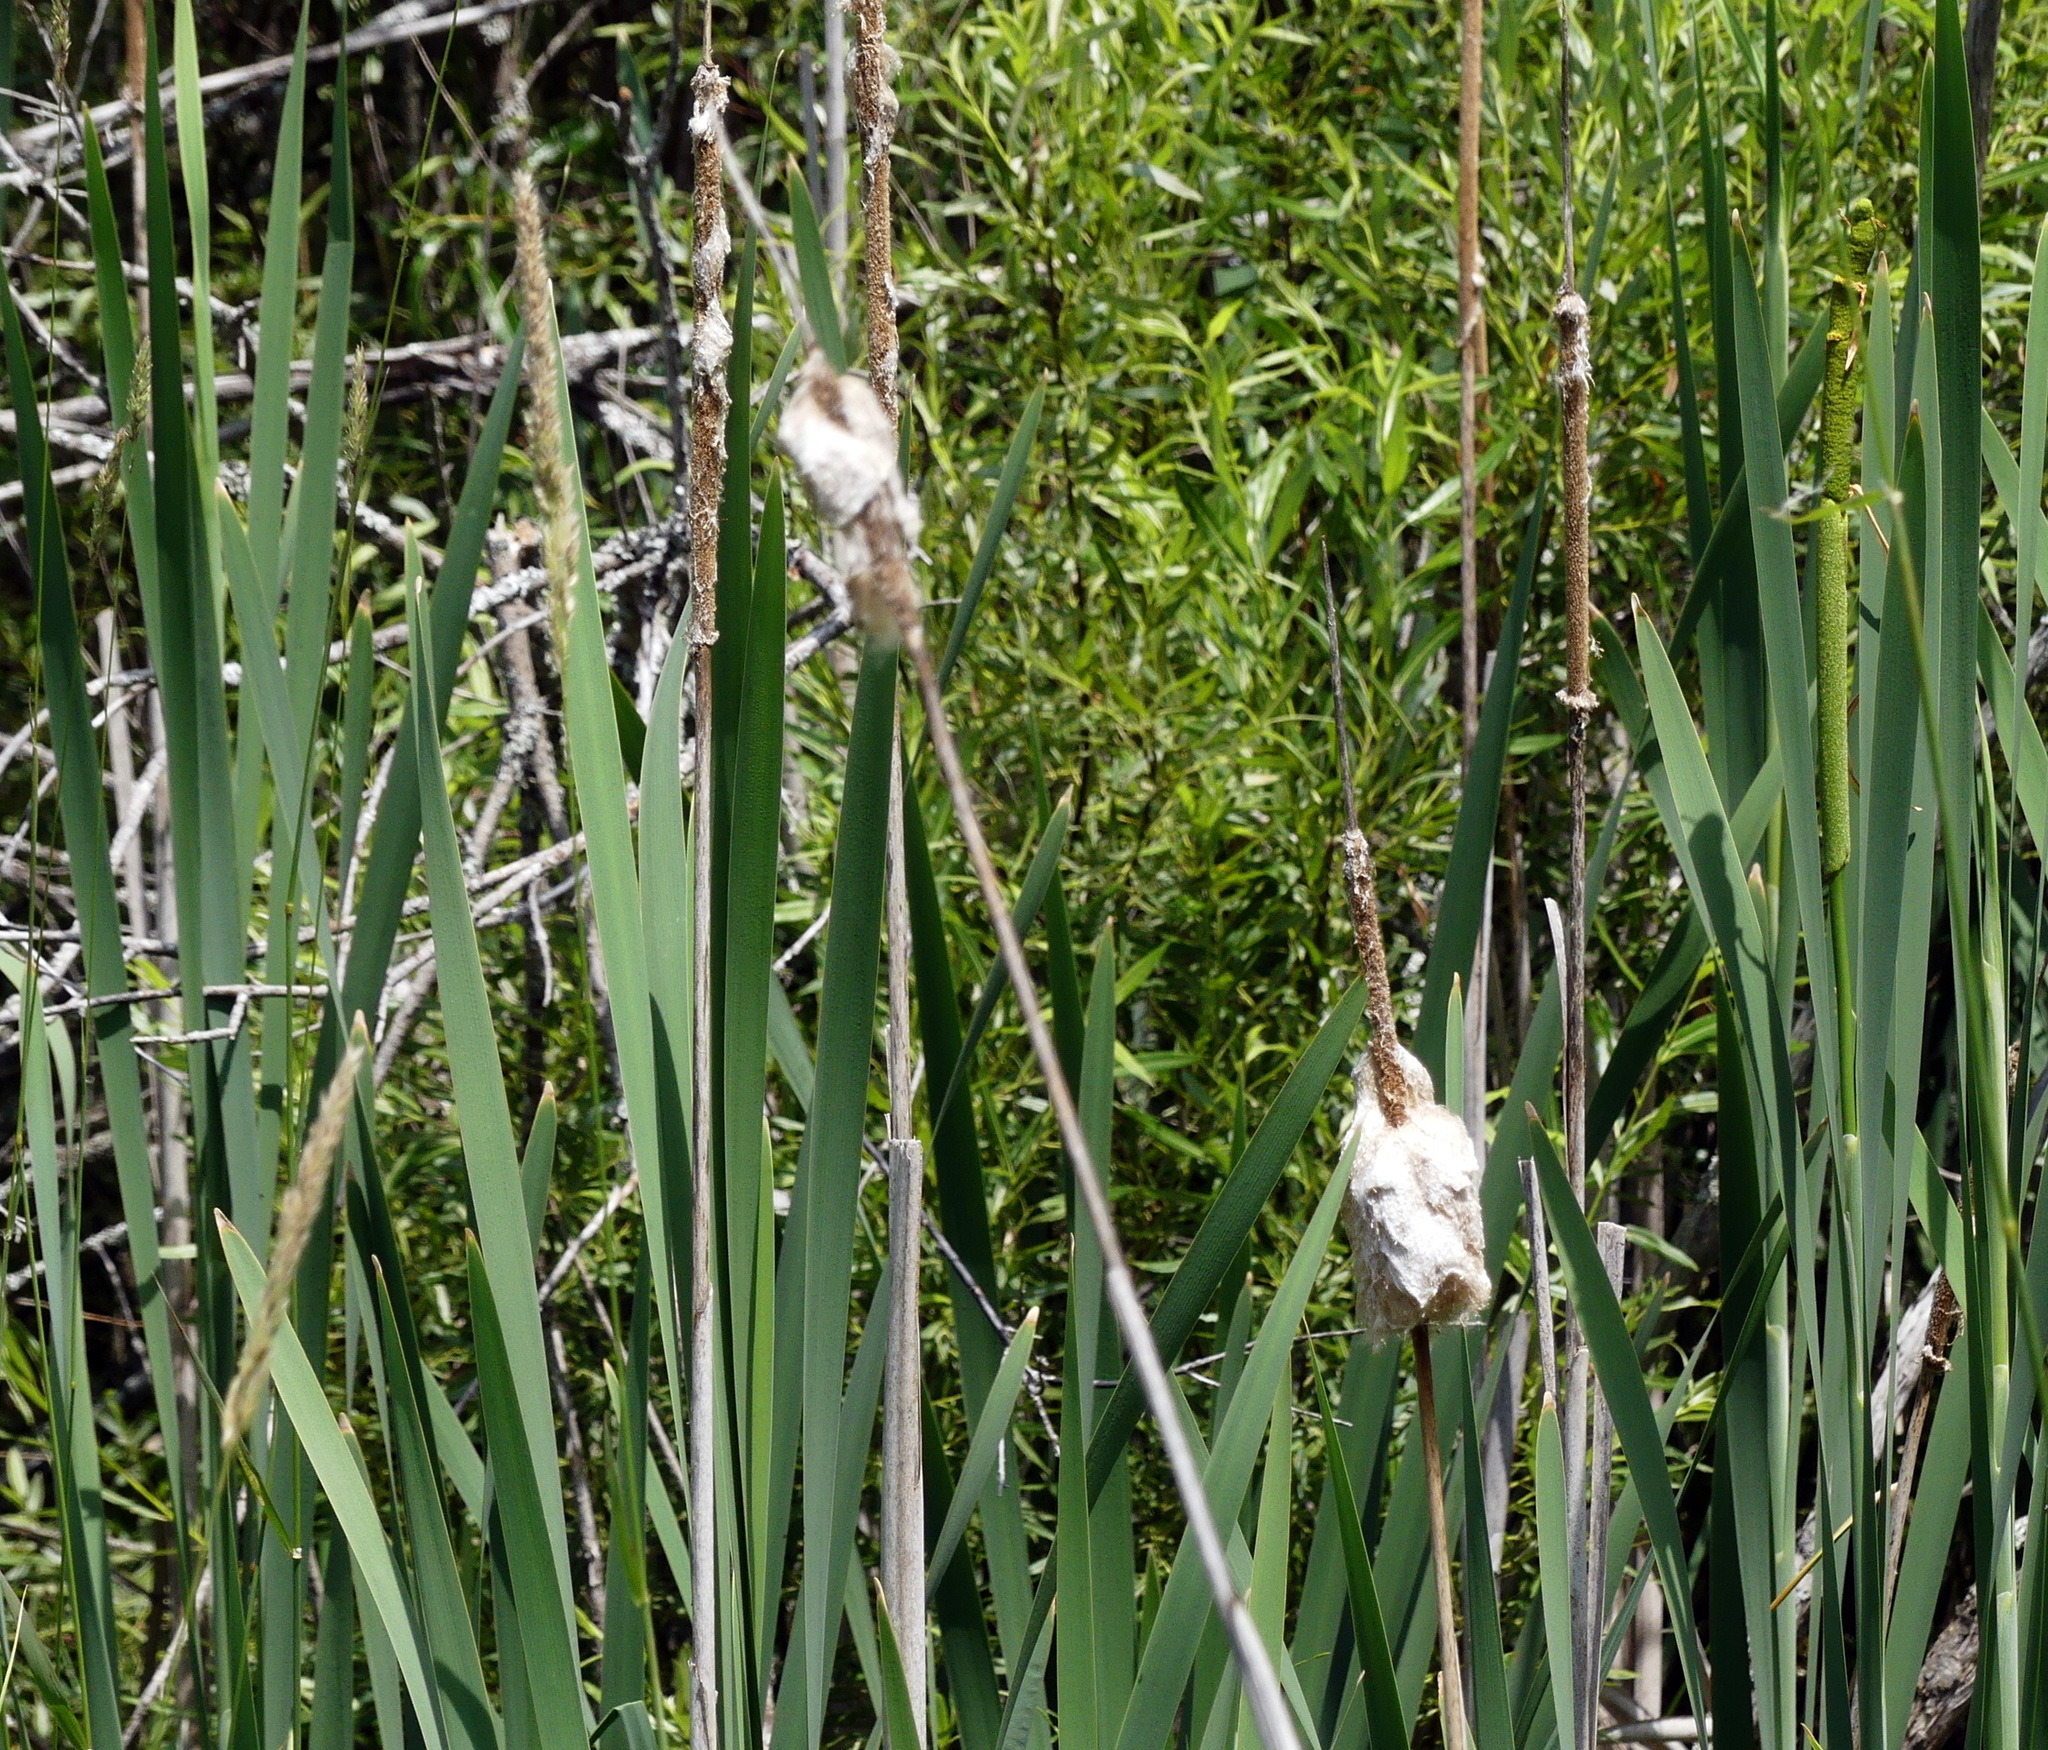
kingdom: Plantae
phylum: Tracheophyta
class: Liliopsida
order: Poales
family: Typhaceae
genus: Typha
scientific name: Typha latifolia
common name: Broadleaf cattail
